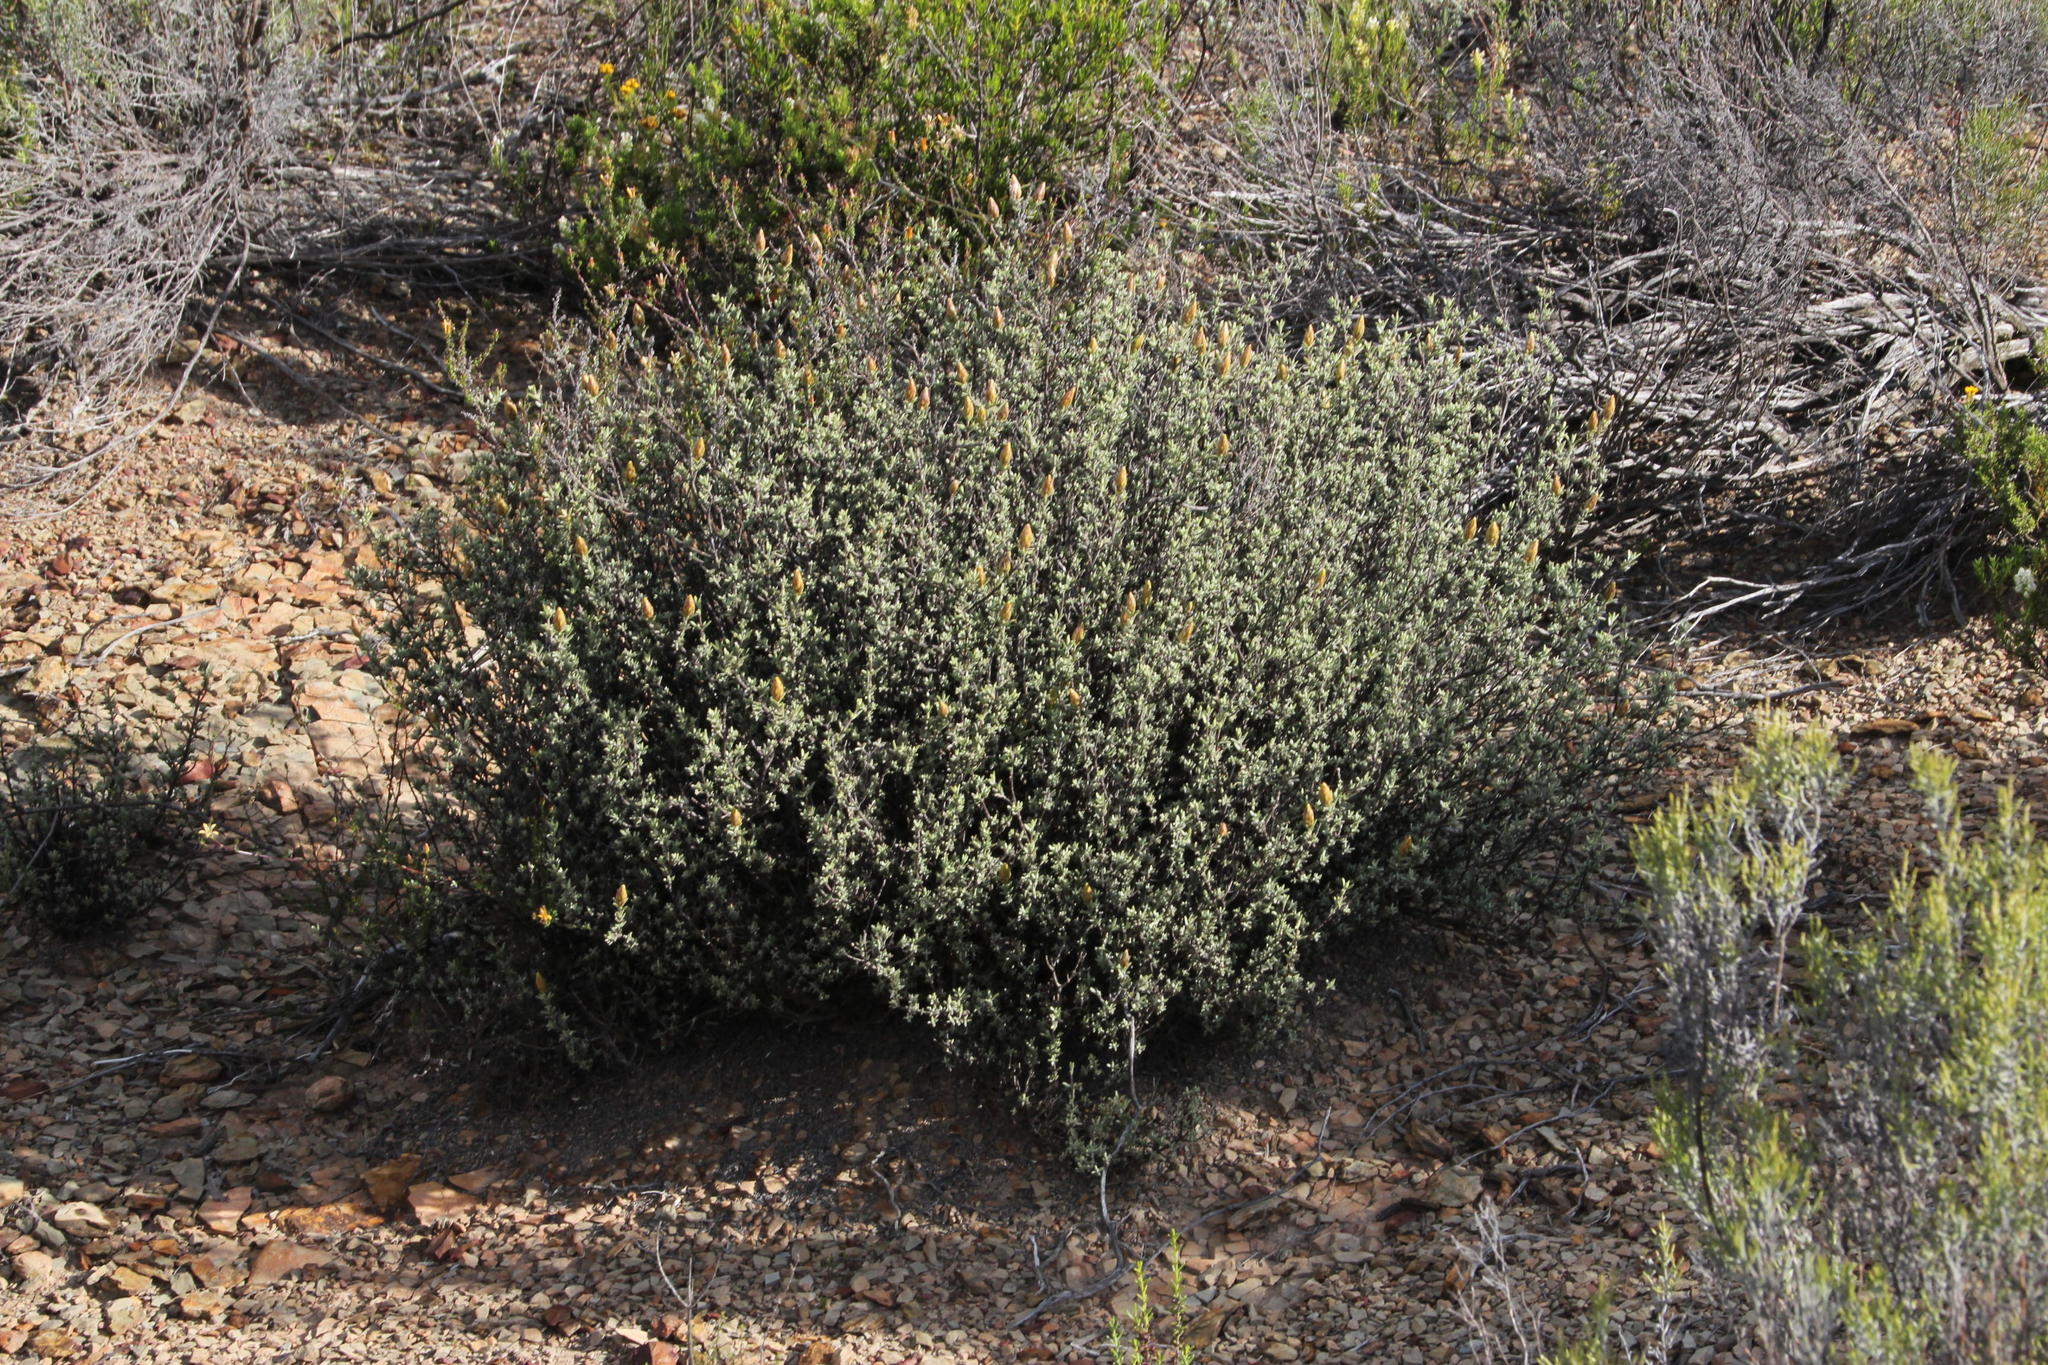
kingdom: Plantae
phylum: Tracheophyta
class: Magnoliopsida
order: Asterales
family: Campanulaceae
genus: Wahlenbergia
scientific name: Wahlenbergia nodosa
